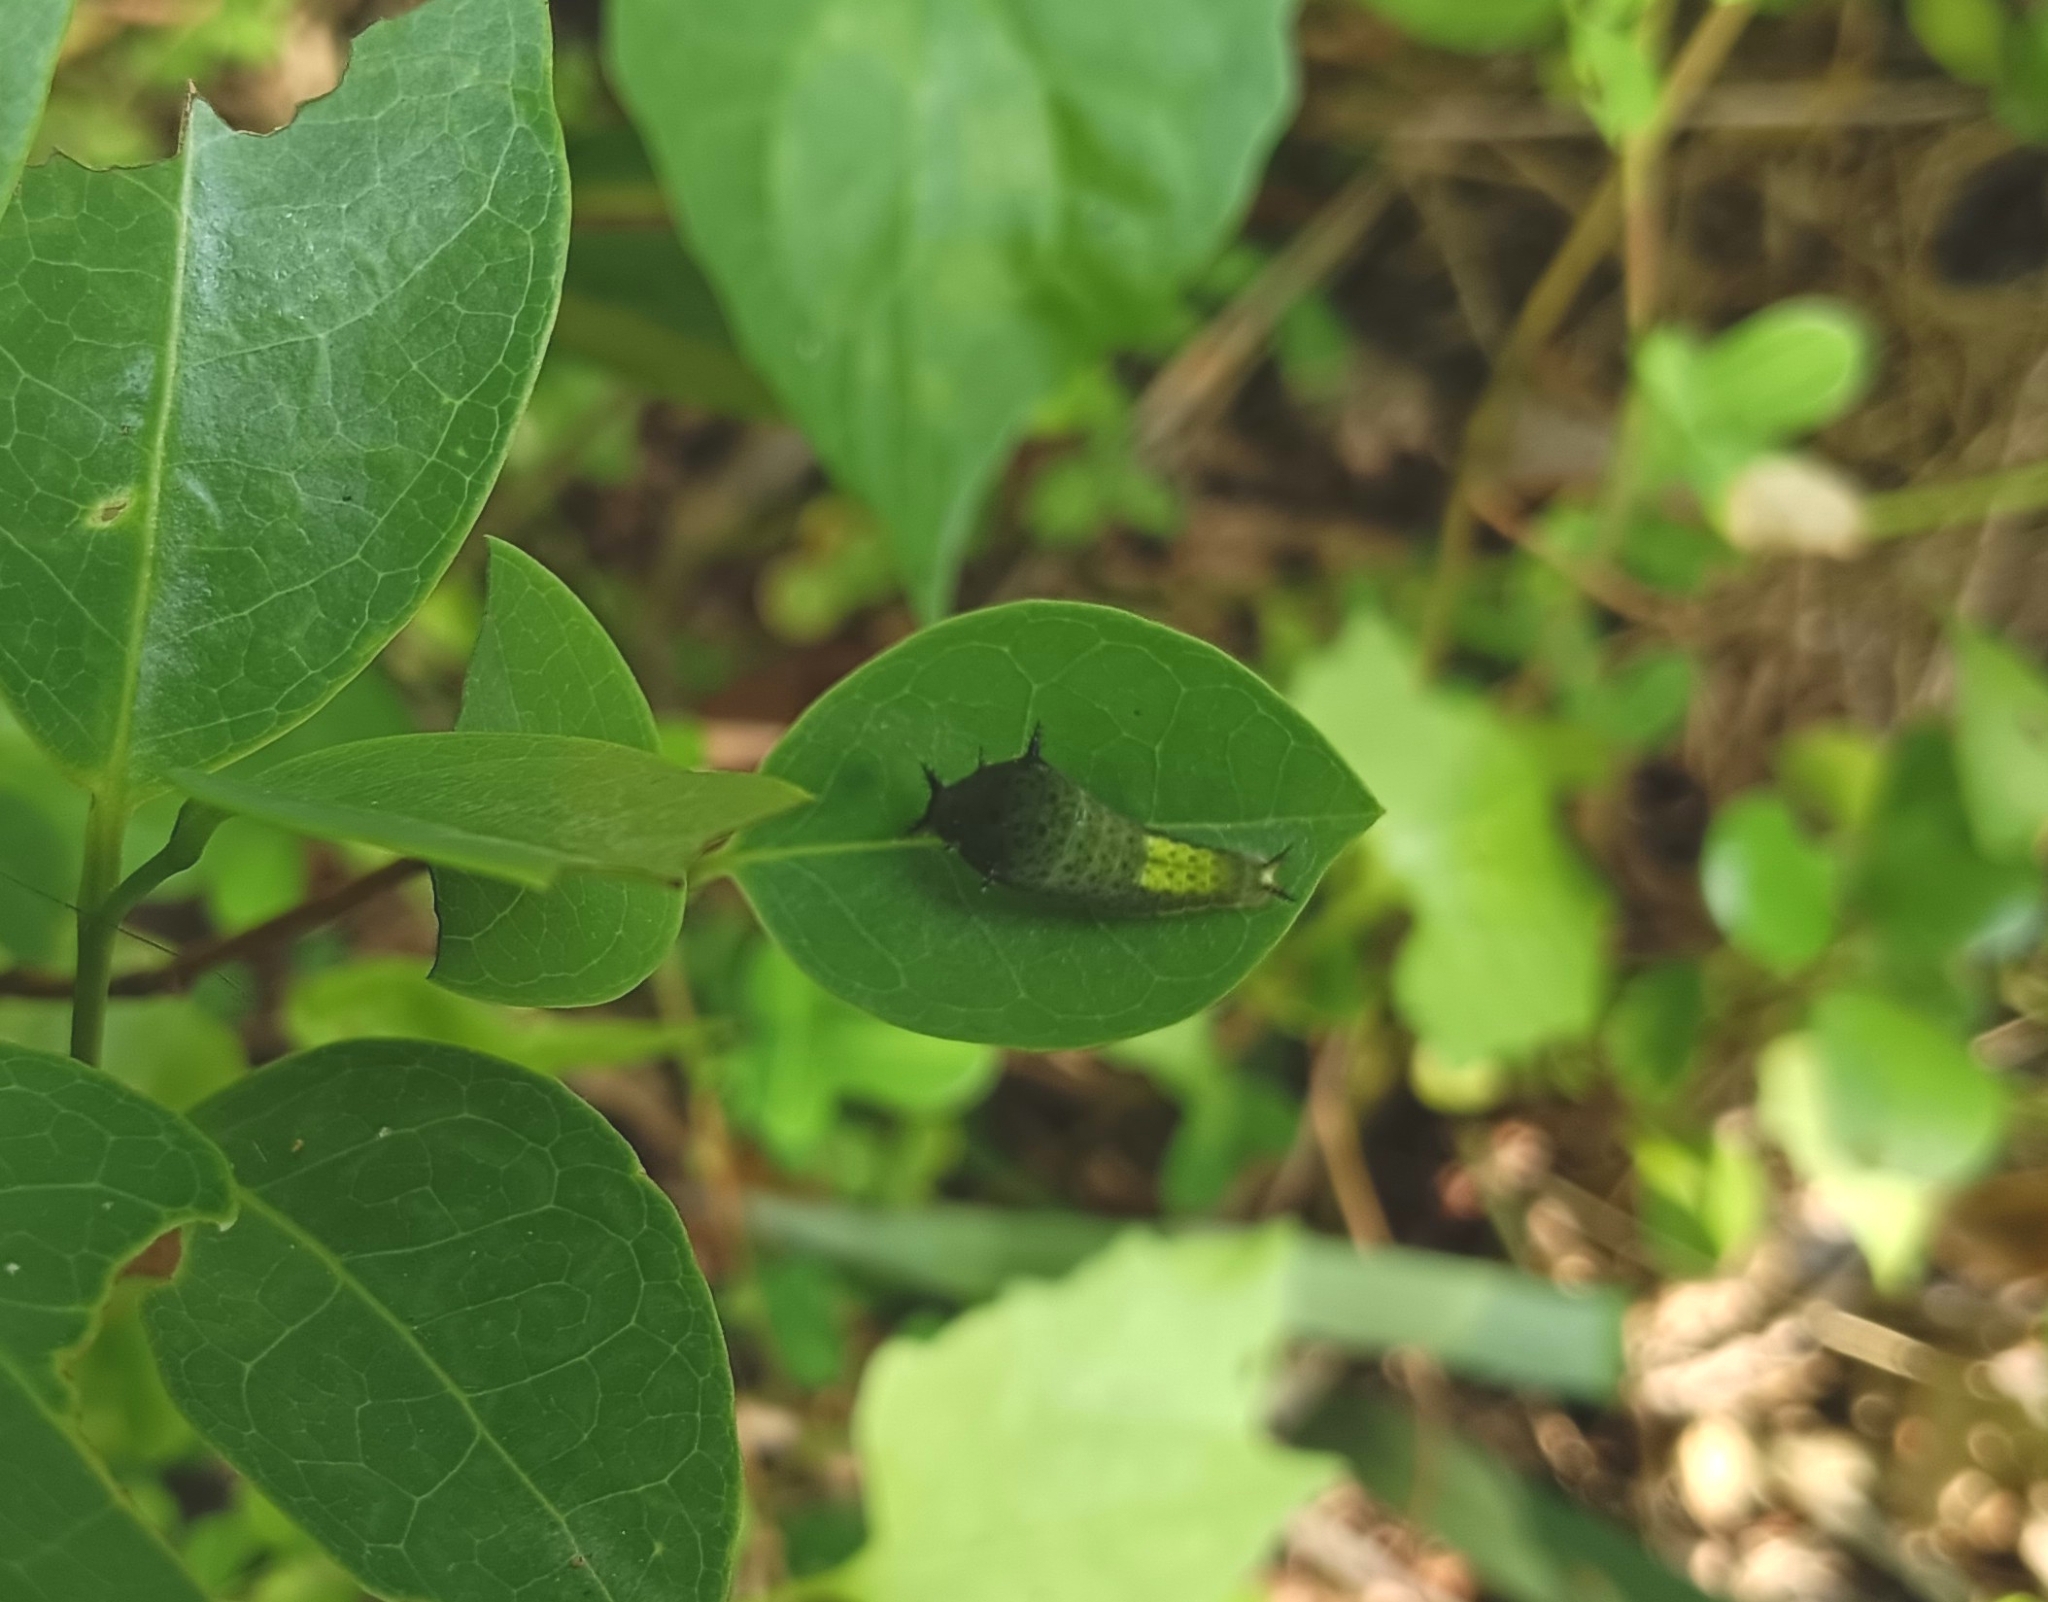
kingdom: Animalia
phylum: Arthropoda
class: Insecta
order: Lepidoptera
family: Papilionidae
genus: Graphium
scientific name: Graphium agamemnon
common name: Tailed jay
